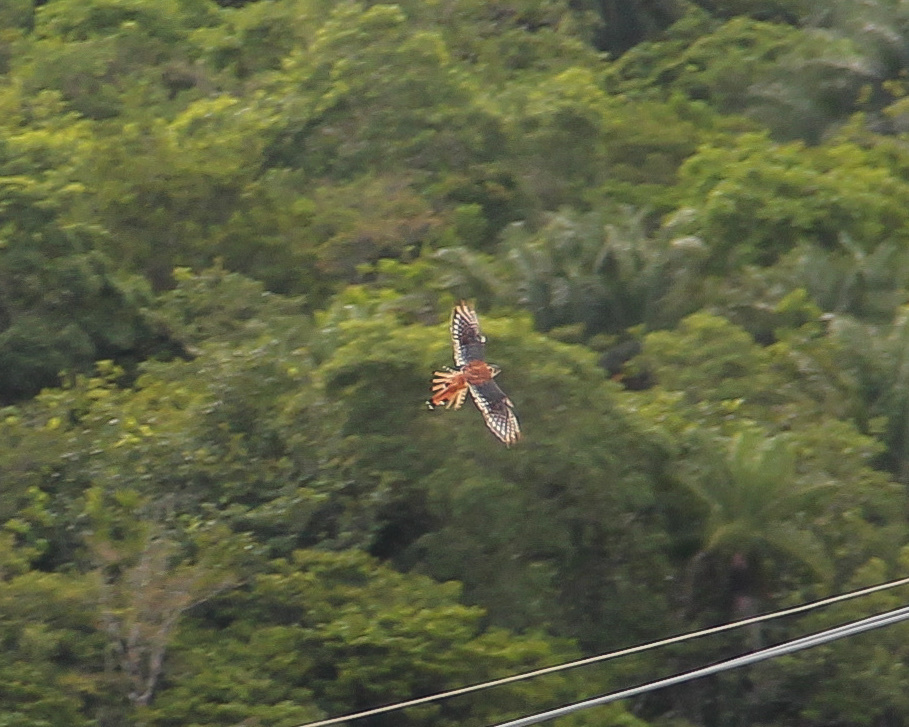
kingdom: Animalia
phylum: Chordata
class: Aves
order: Falconiformes
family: Falconidae
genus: Falco
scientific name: Falco sparverius
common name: American kestrel
